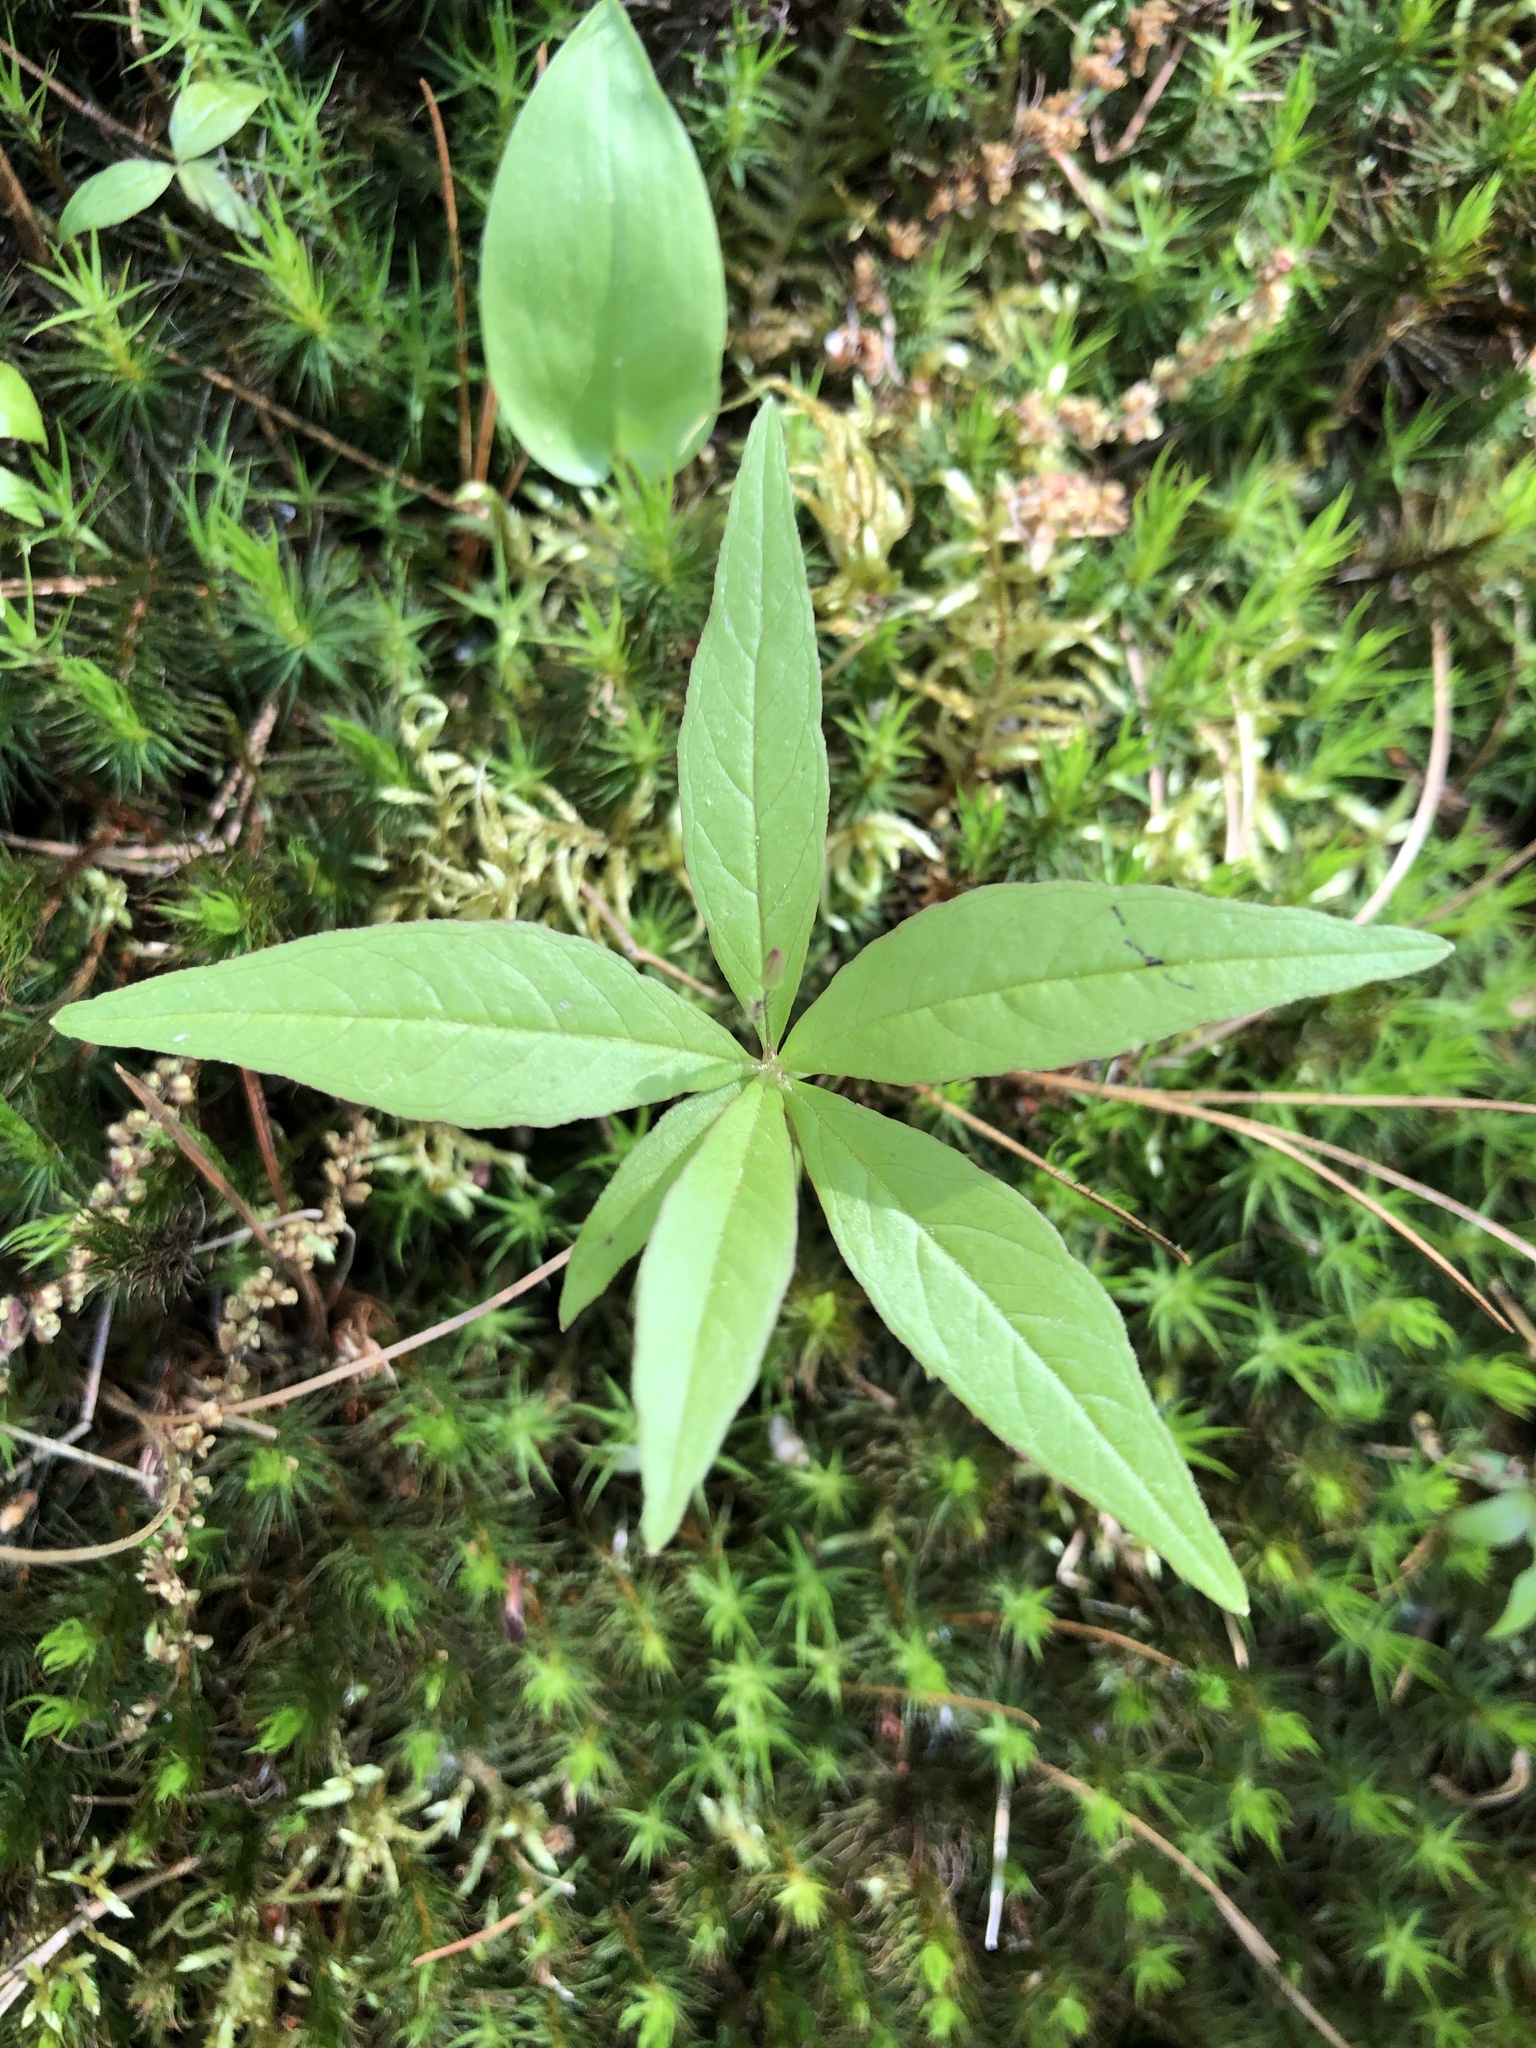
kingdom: Plantae
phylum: Tracheophyta
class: Magnoliopsida
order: Ericales
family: Primulaceae
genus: Lysimachia
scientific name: Lysimachia borealis
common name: American starflower
